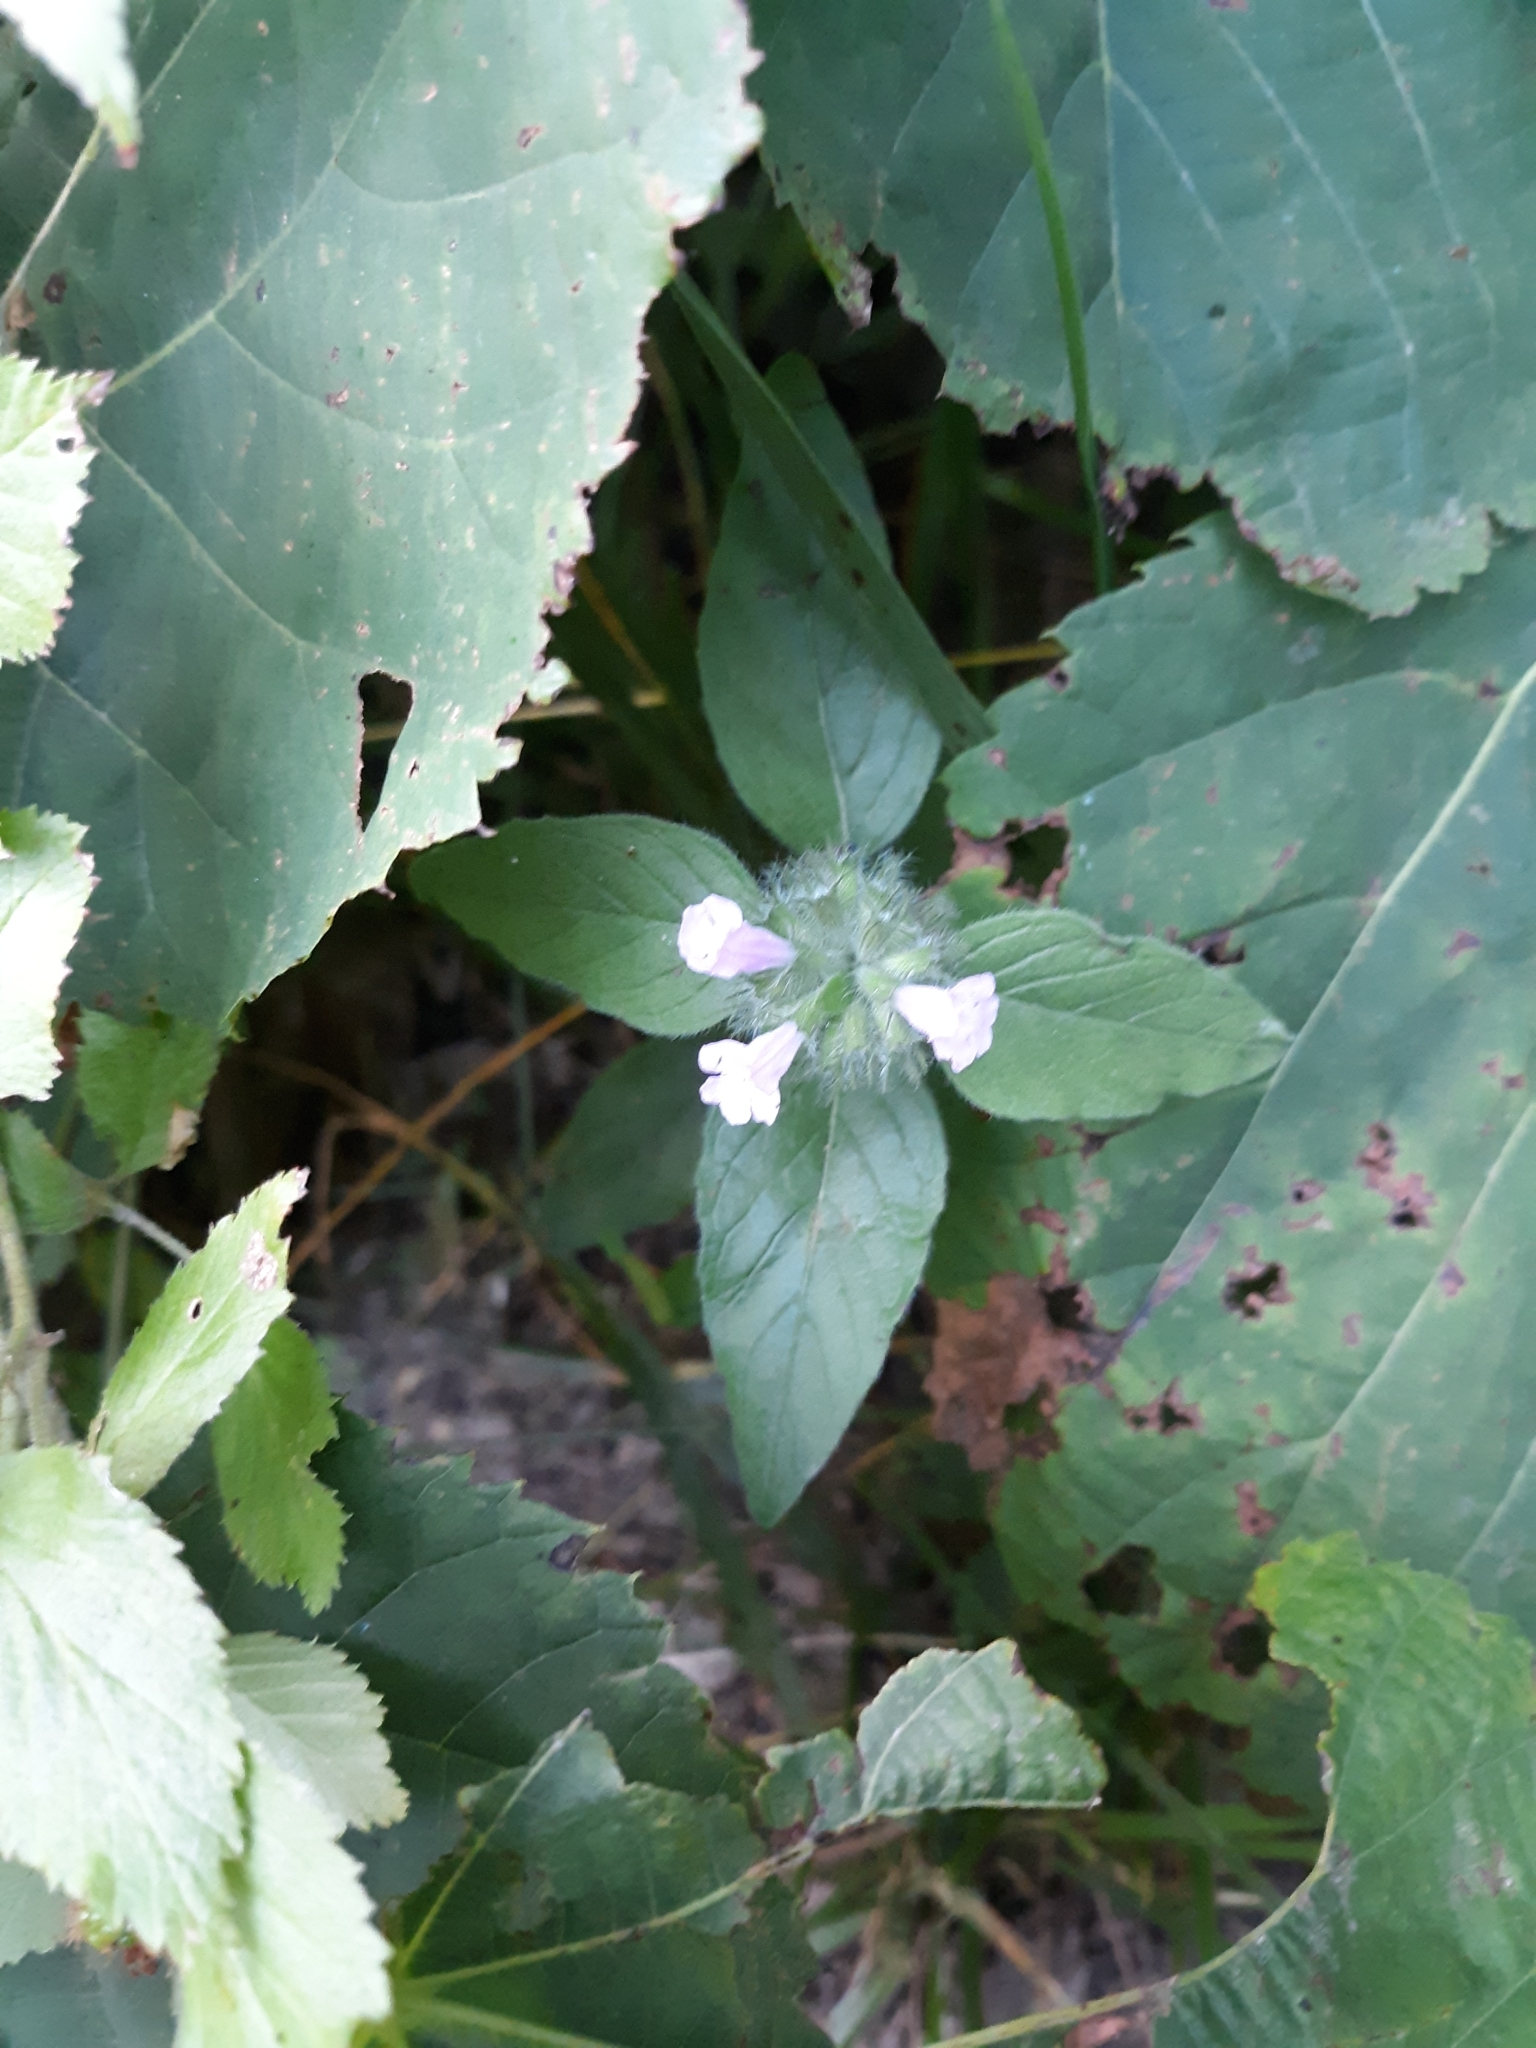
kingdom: Plantae
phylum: Tracheophyta
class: Magnoliopsida
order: Lamiales
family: Lamiaceae
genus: Clinopodium
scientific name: Clinopodium vulgare
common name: Wild basil
